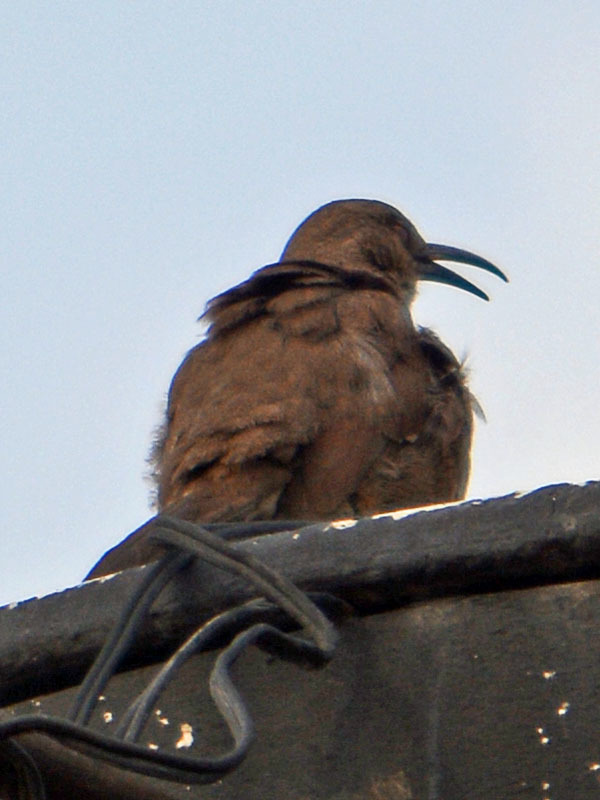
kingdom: Animalia
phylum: Chordata
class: Aves
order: Passeriformes
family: Mimidae
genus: Toxostoma
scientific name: Toxostoma curvirostre
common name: Curve-billed thrasher
